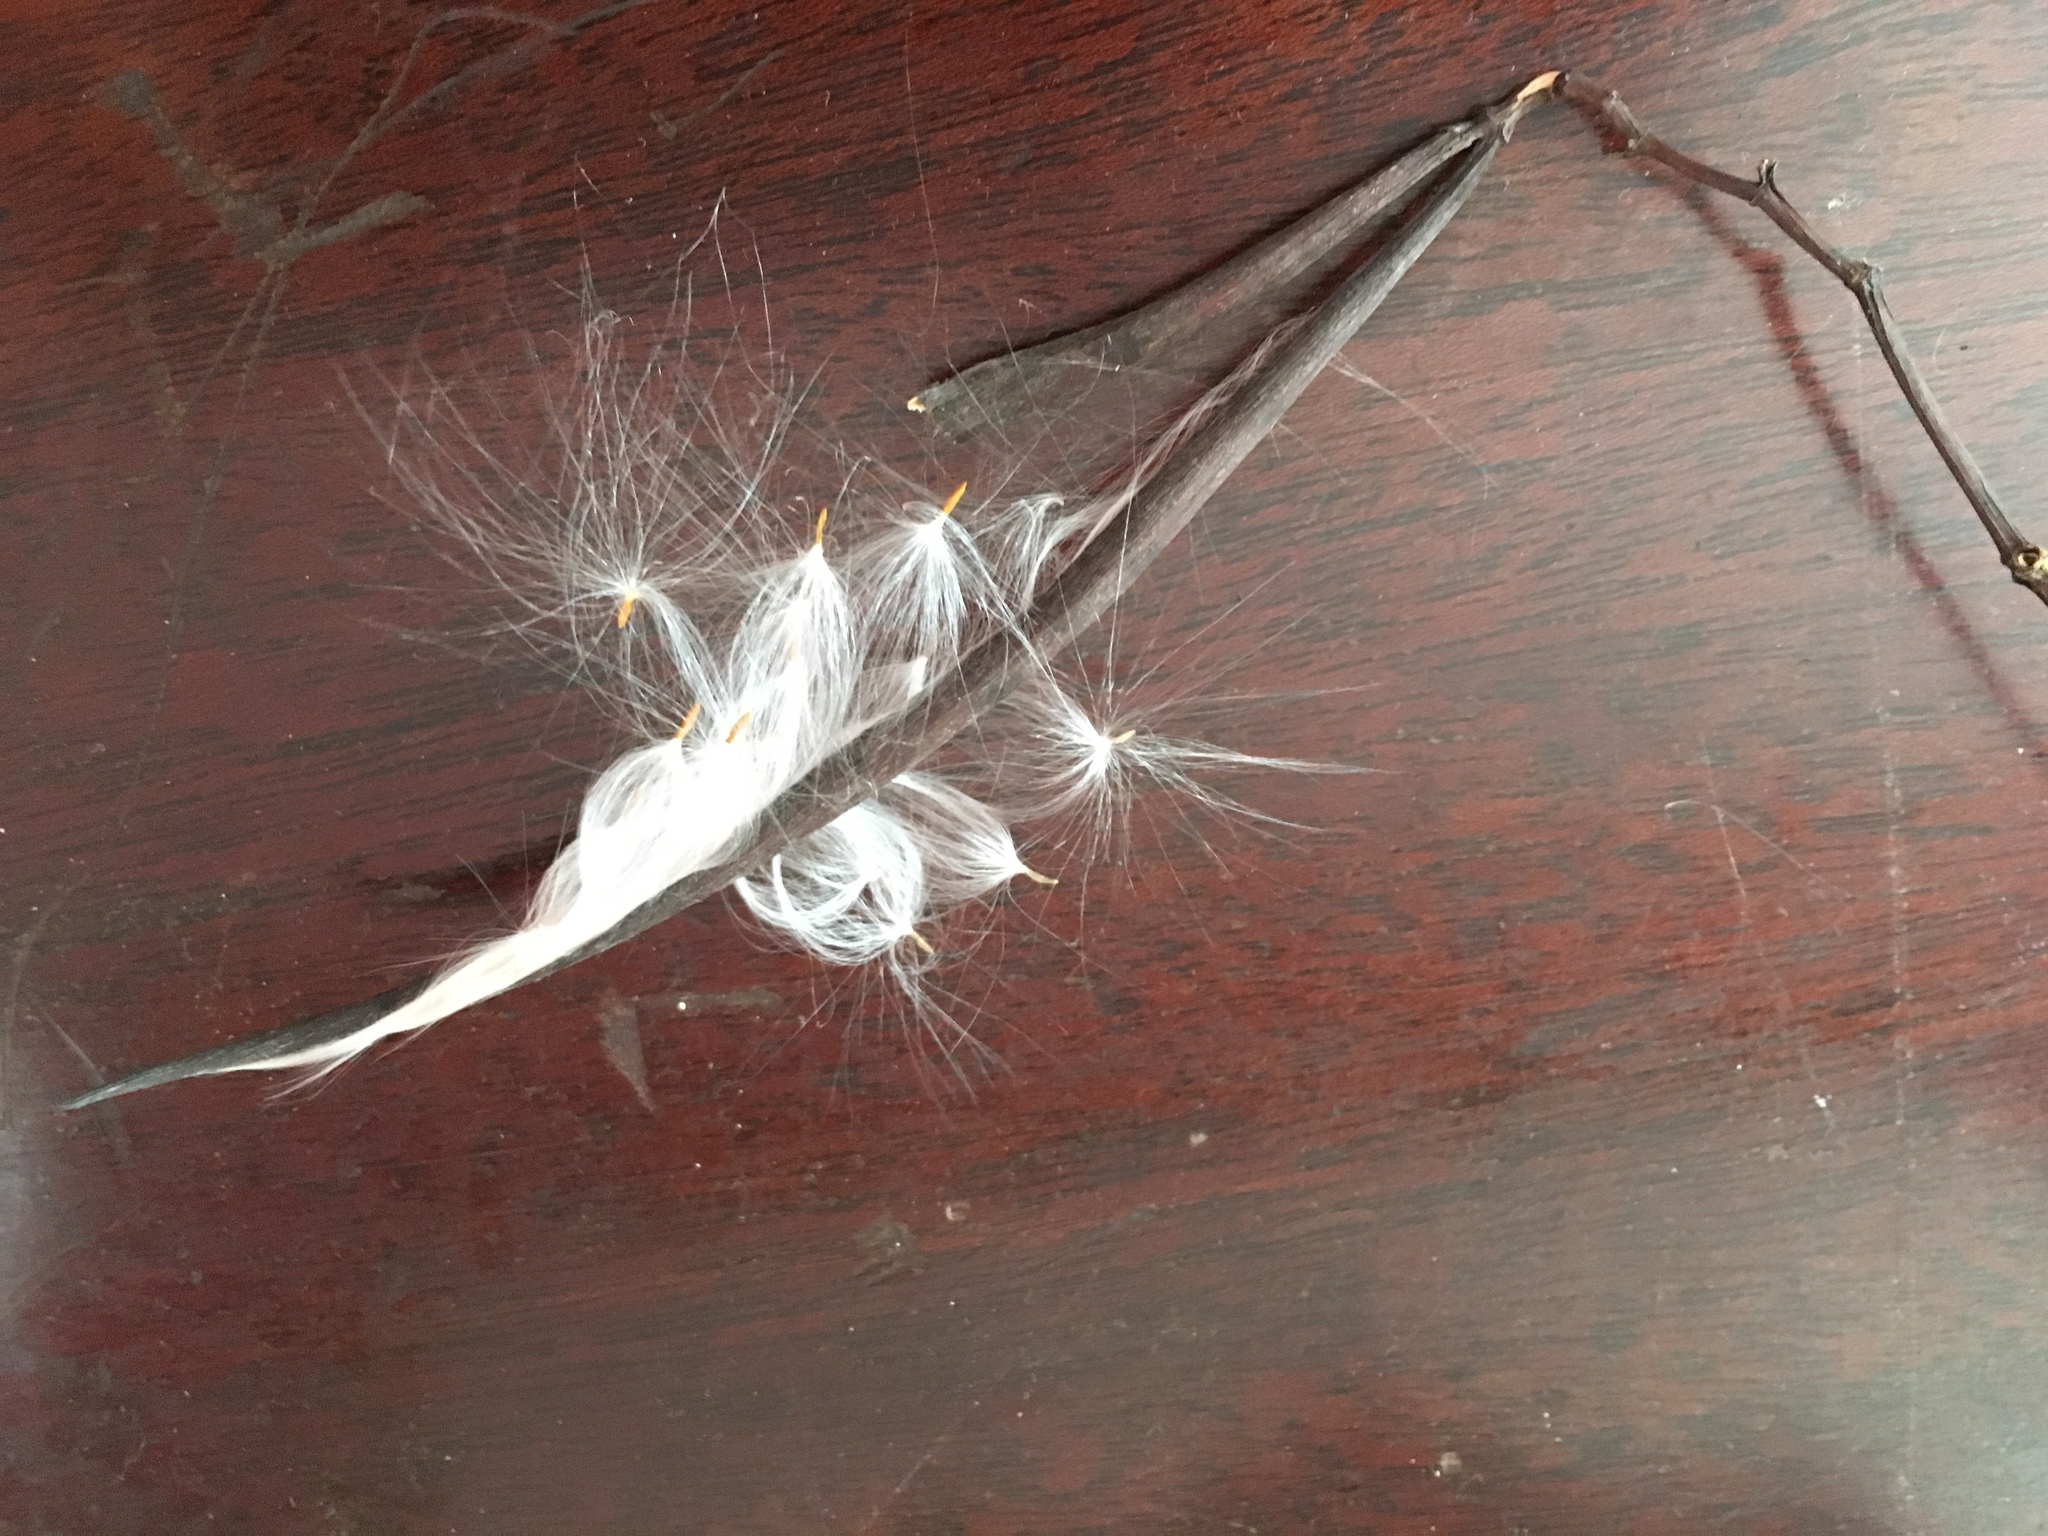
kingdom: Plantae
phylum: Tracheophyta
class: Magnoliopsida
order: Gentianales
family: Apocynaceae
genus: Apocynum
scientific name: Apocynum cannabinum
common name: Hemp dogbane
